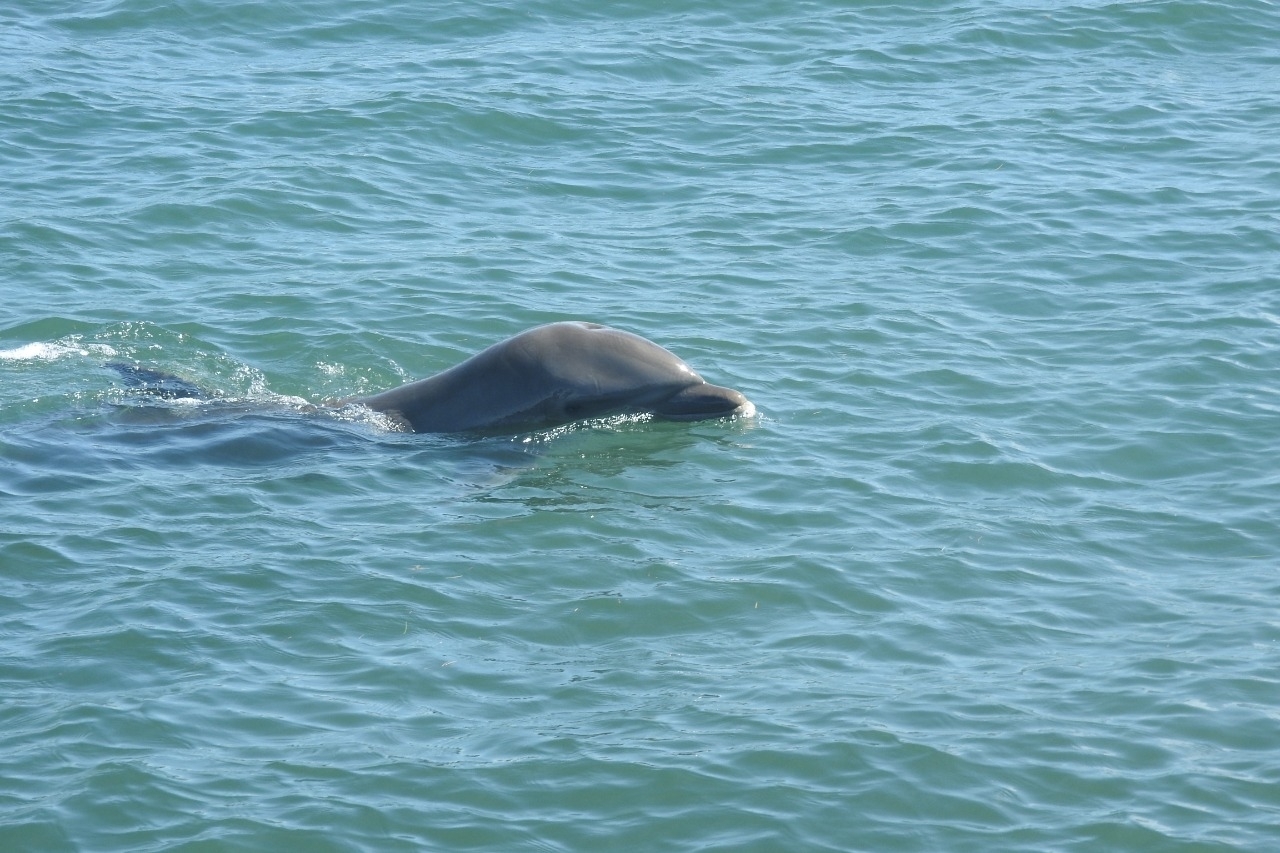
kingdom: Animalia
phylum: Chordata
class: Mammalia
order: Cetacea
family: Delphinidae
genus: Tursiops
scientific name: Tursiops truncatus
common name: Bottlenose dolphin
